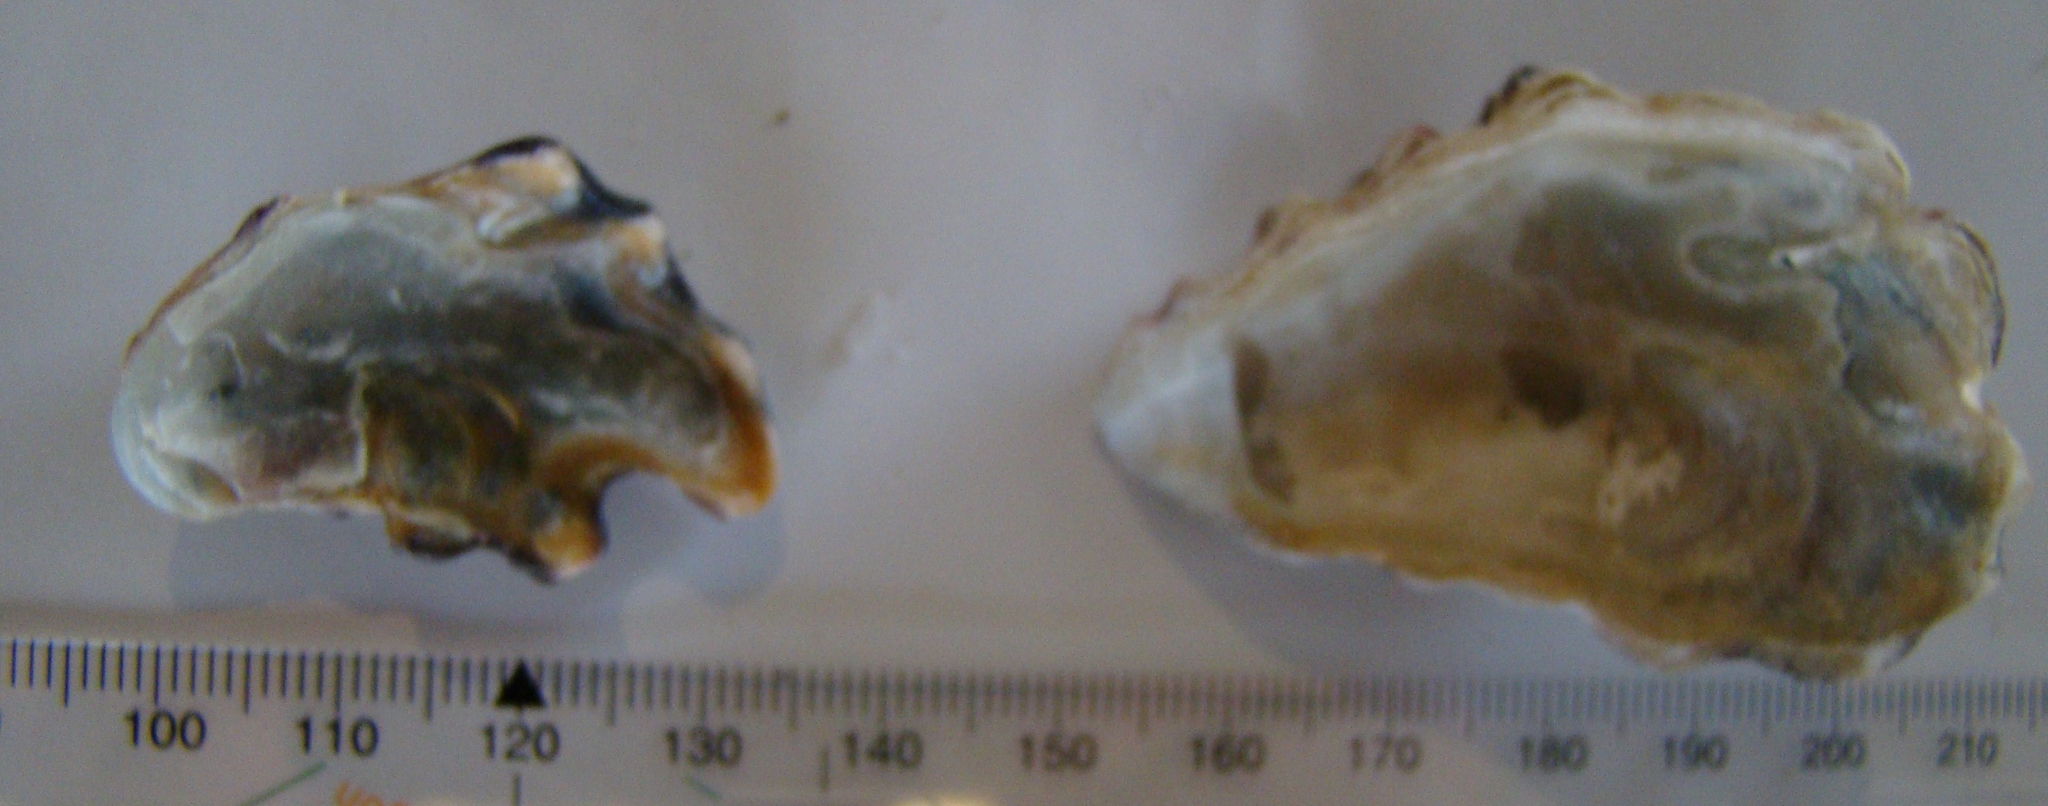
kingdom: Animalia
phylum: Mollusca
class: Bivalvia
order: Ostreida
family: Ostreidae
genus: Magallana
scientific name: Magallana gigas
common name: Pacific oyster
